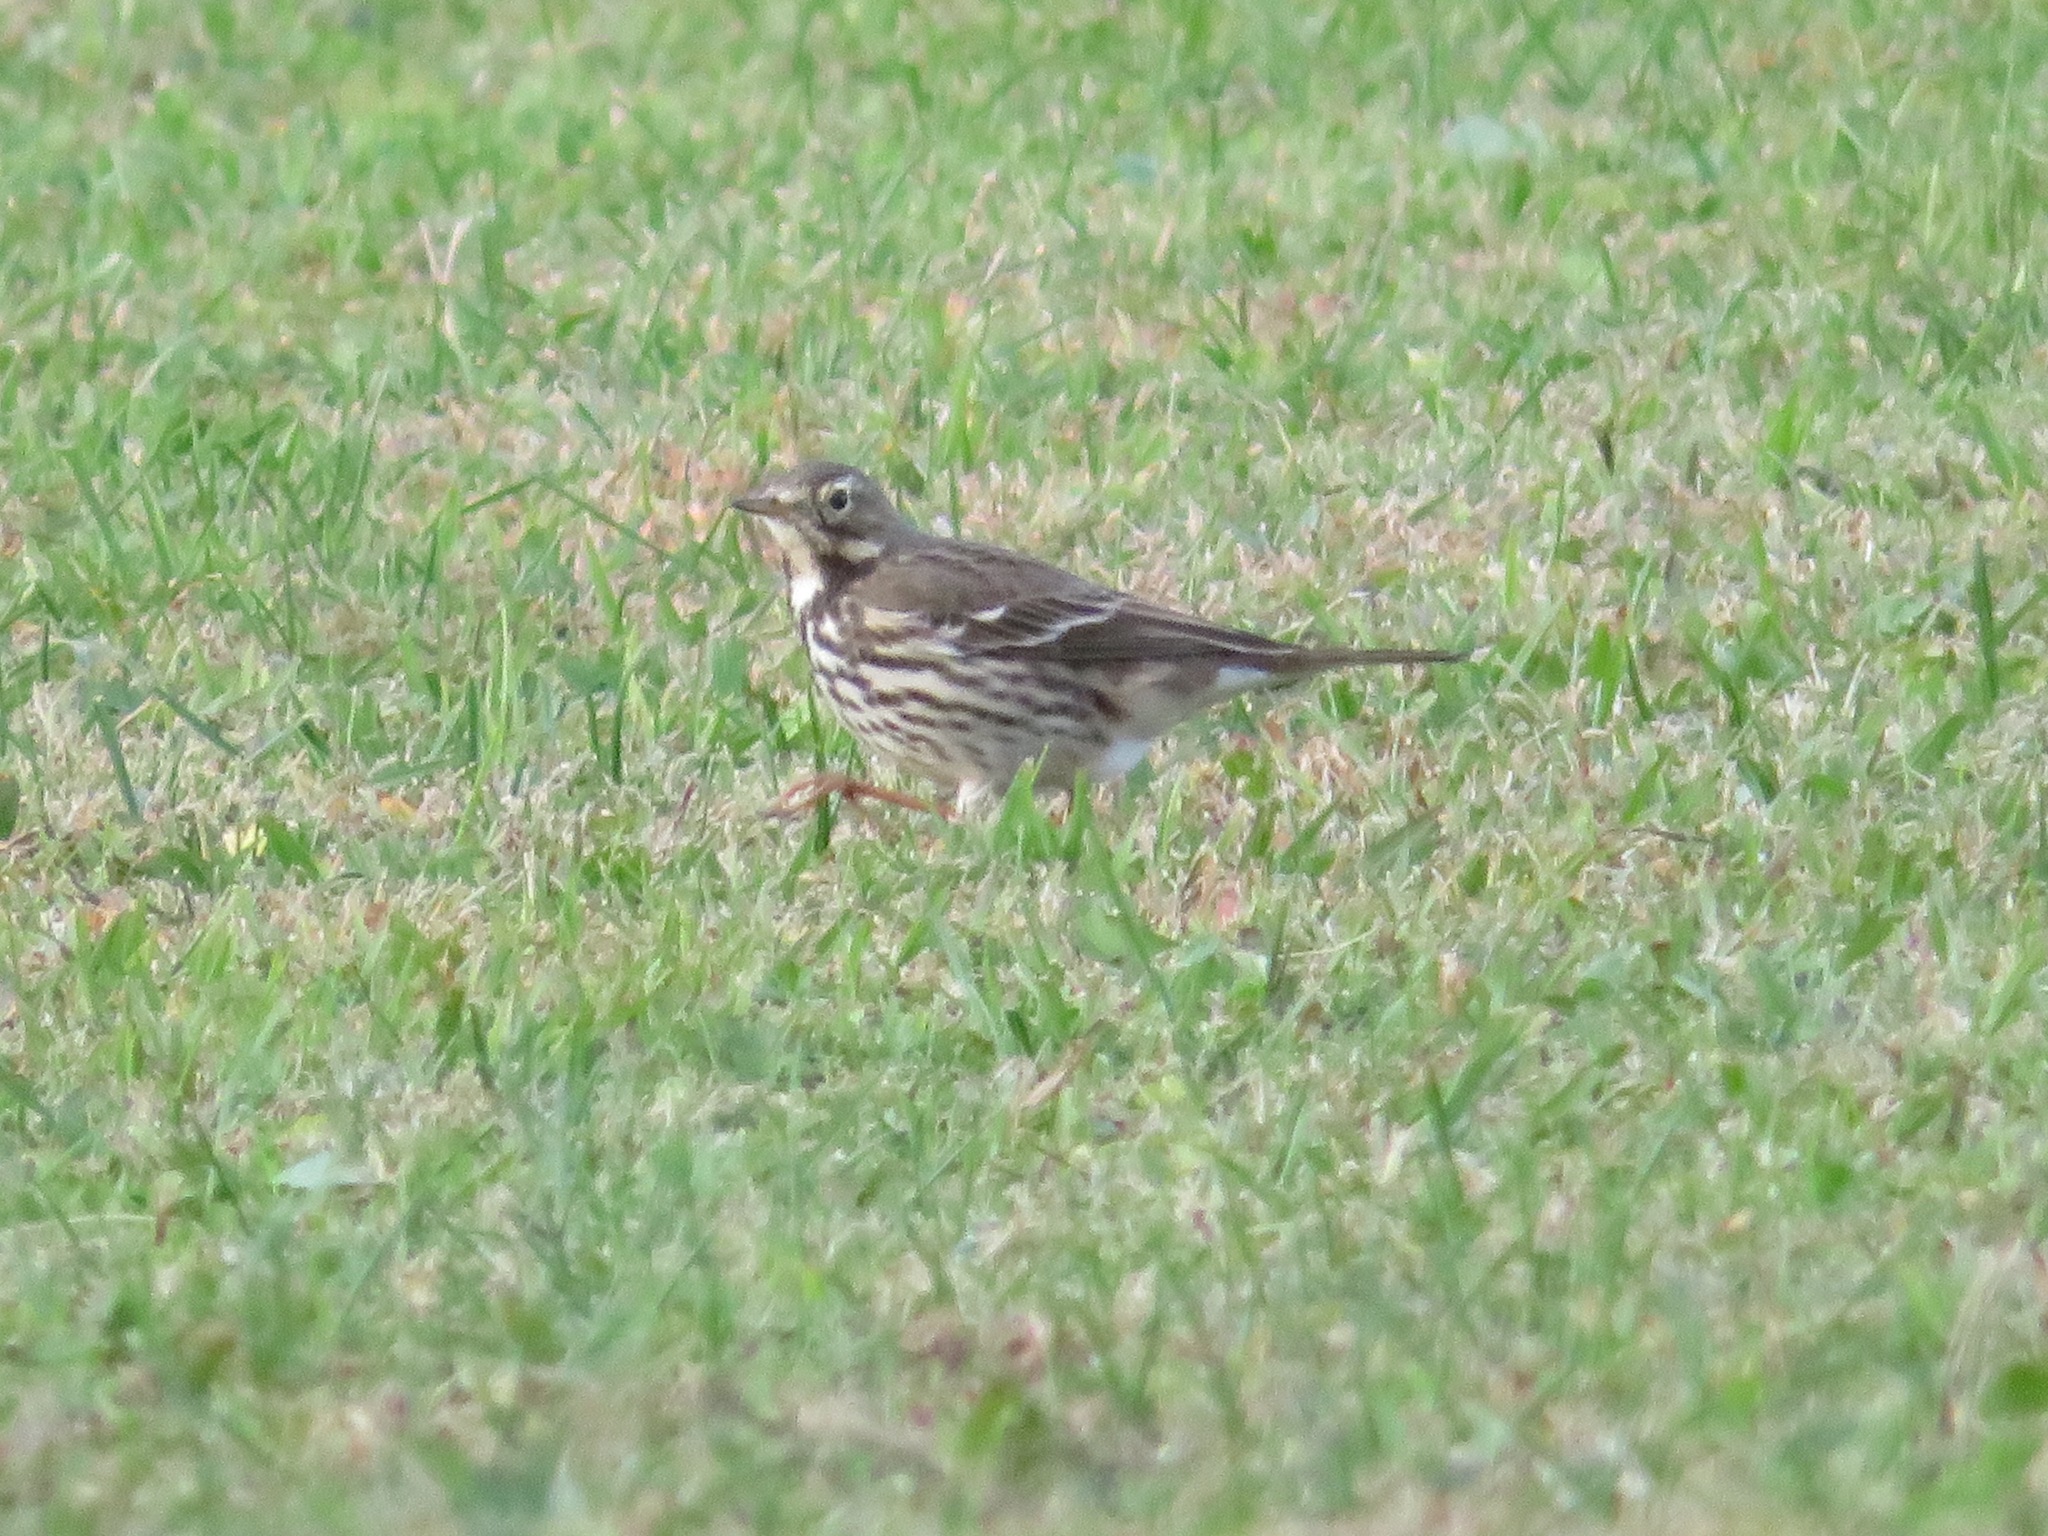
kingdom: Animalia
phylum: Chordata
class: Aves
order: Passeriformes
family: Motacillidae
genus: Anthus
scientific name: Anthus rubescens
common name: Buff-bellied pipit
